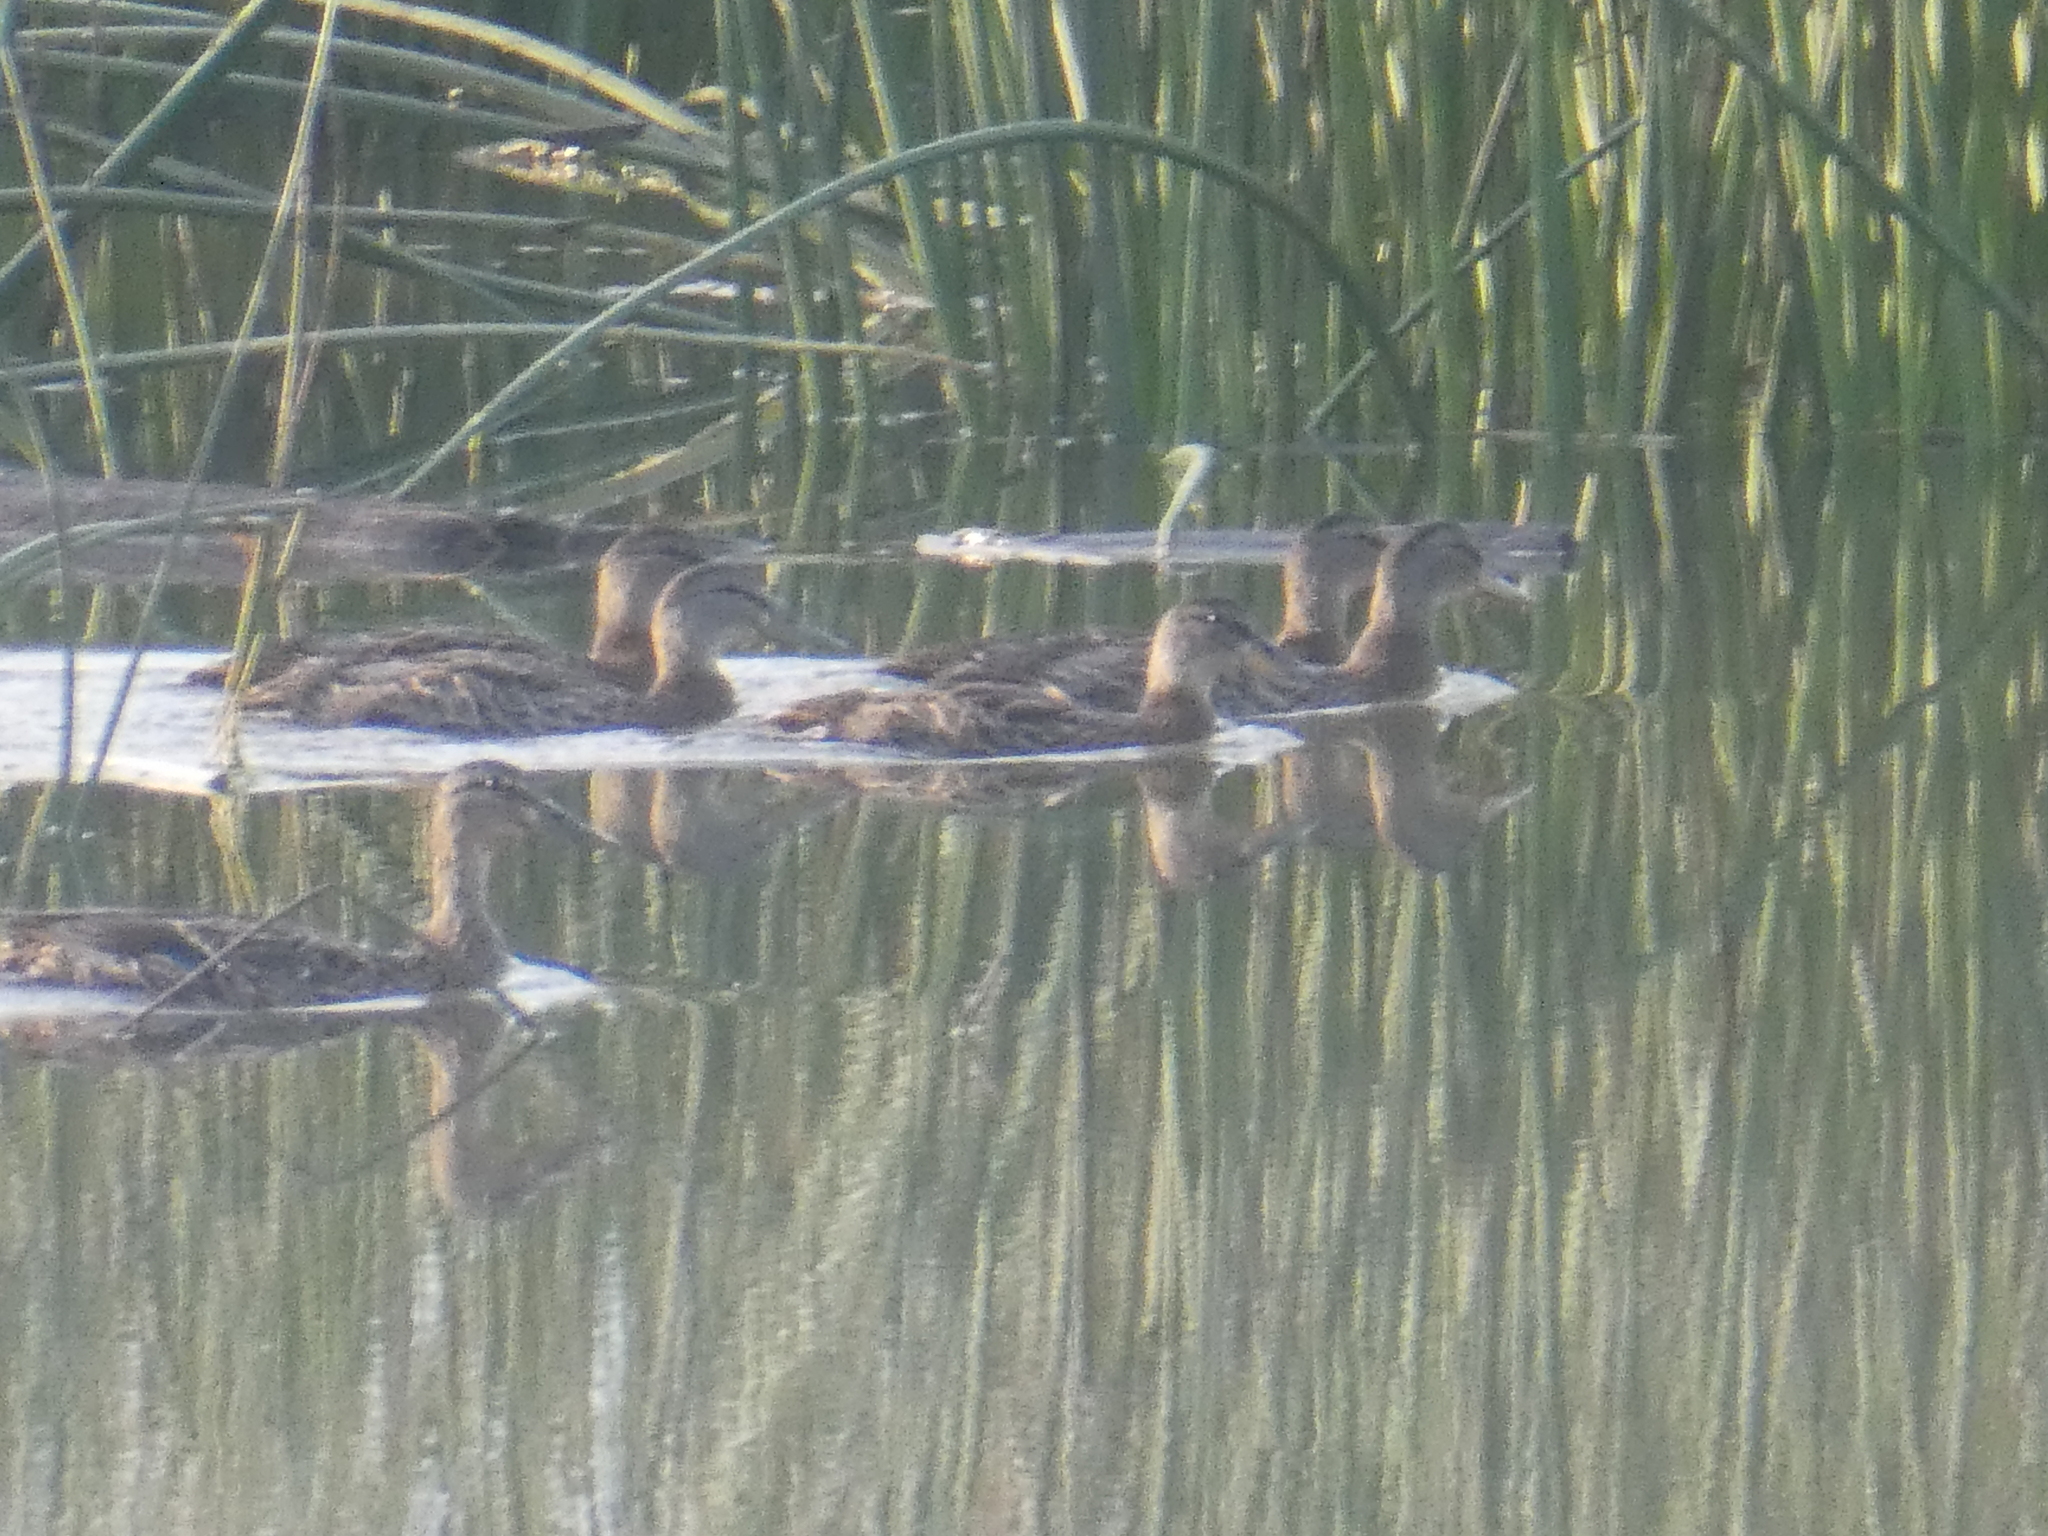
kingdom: Animalia
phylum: Chordata
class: Aves
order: Anseriformes
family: Anatidae
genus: Mareca
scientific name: Mareca strepera
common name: Gadwall
